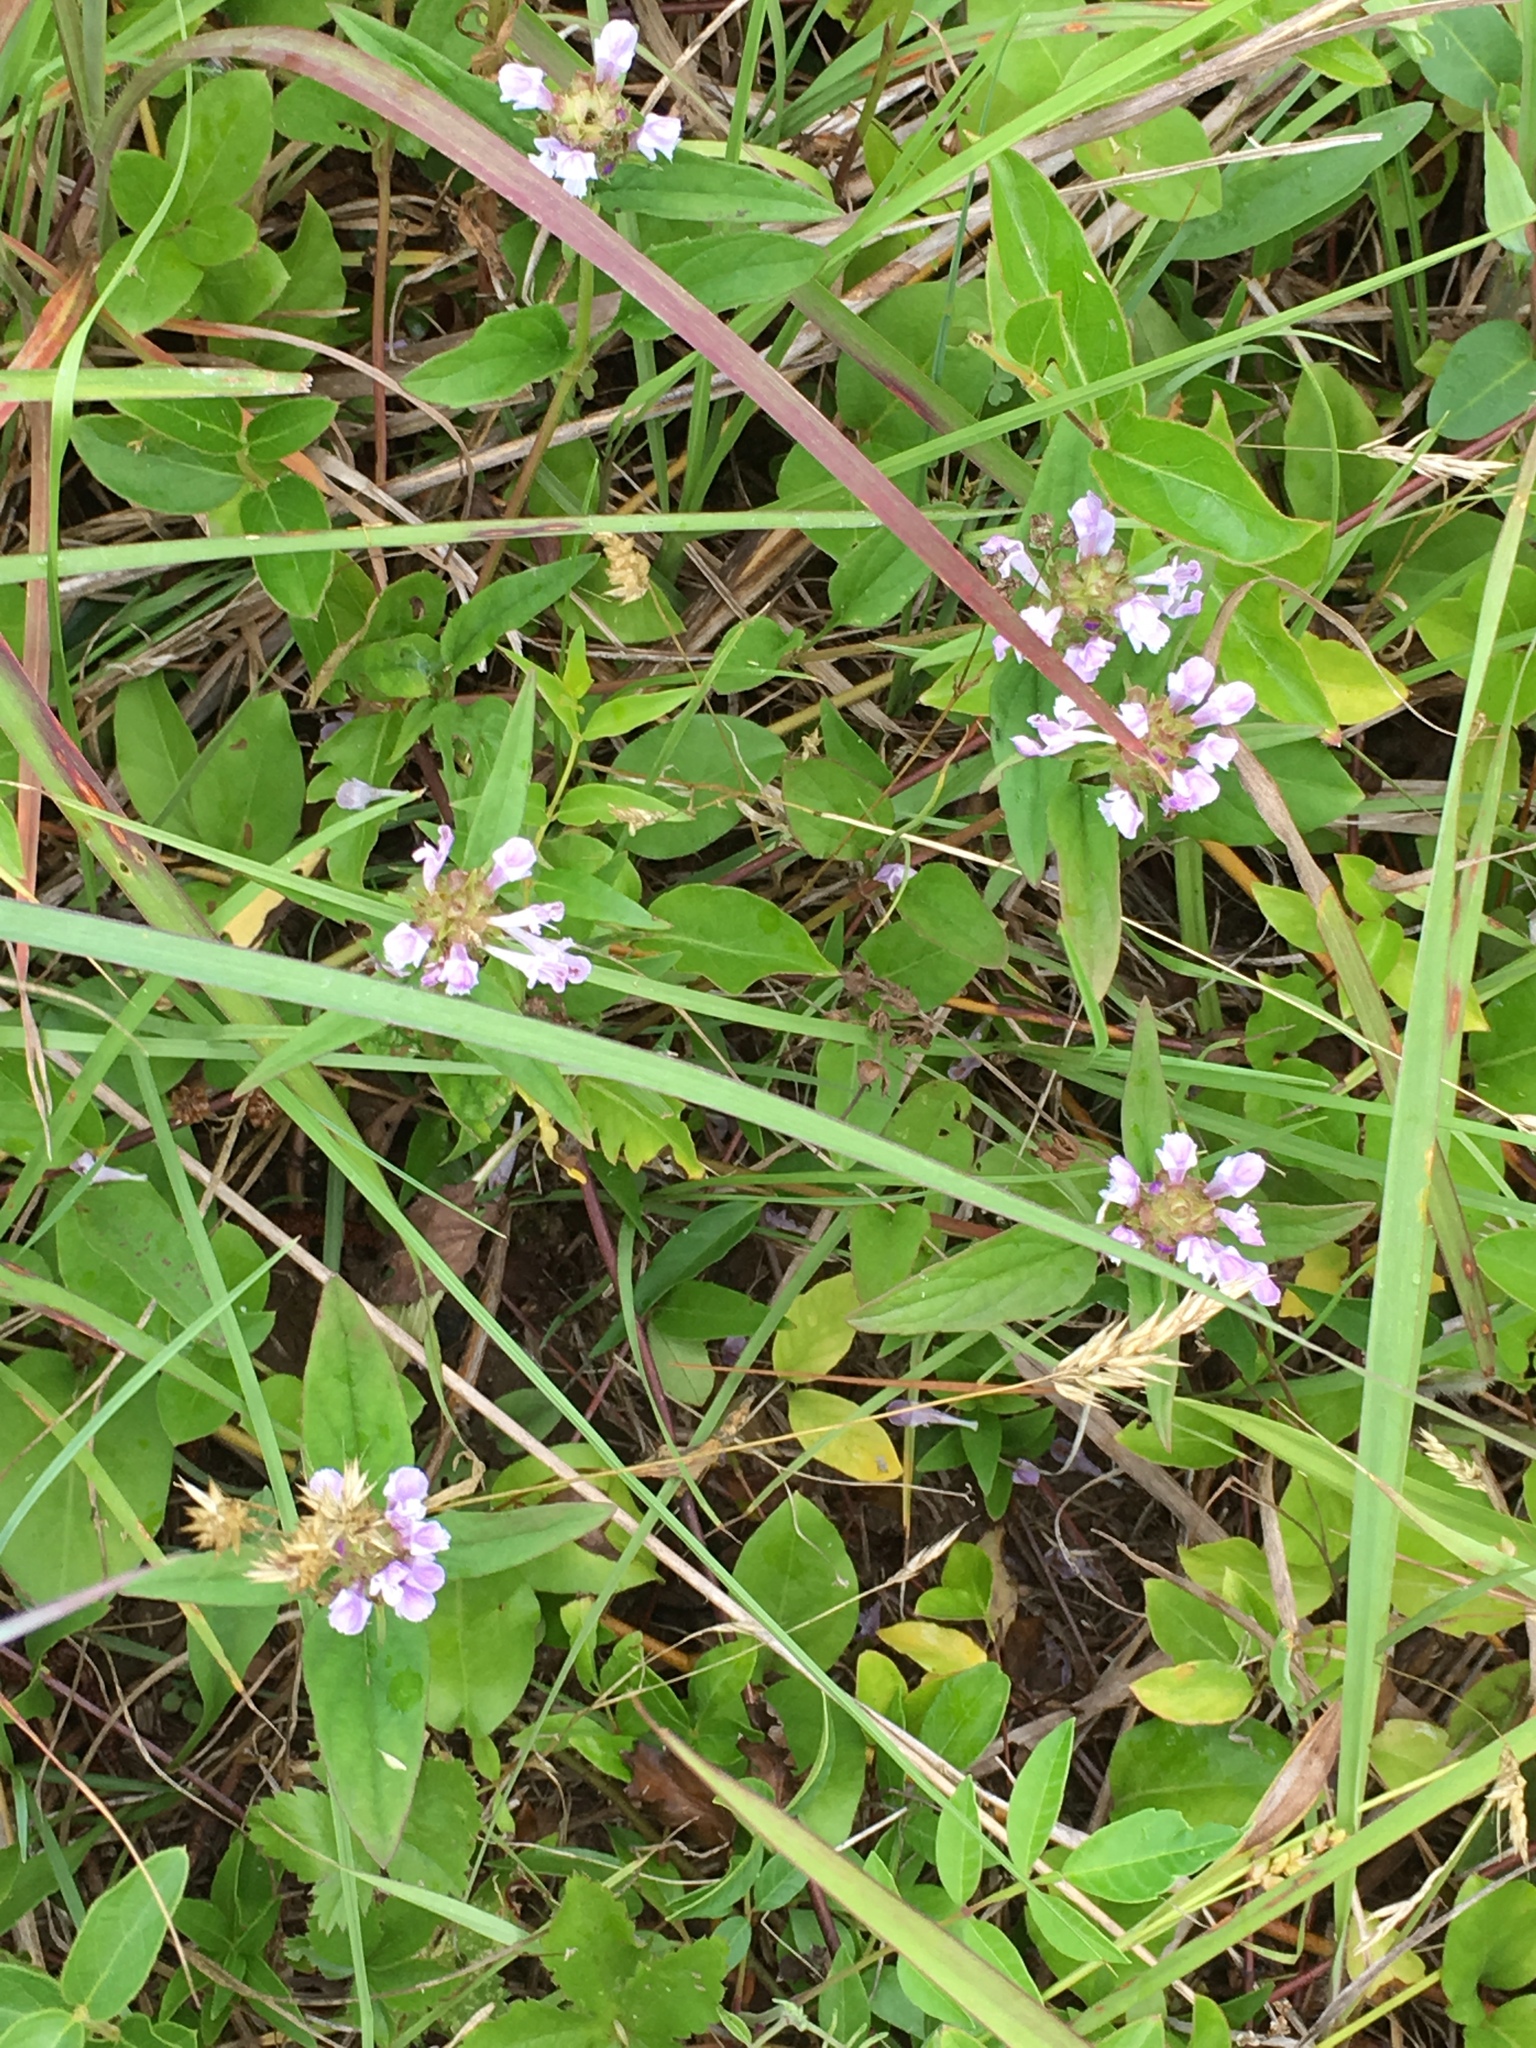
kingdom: Plantae
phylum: Tracheophyta
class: Magnoliopsida
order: Lamiales
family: Lamiaceae
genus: Prunella
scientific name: Prunella vulgaris
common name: Heal-all
